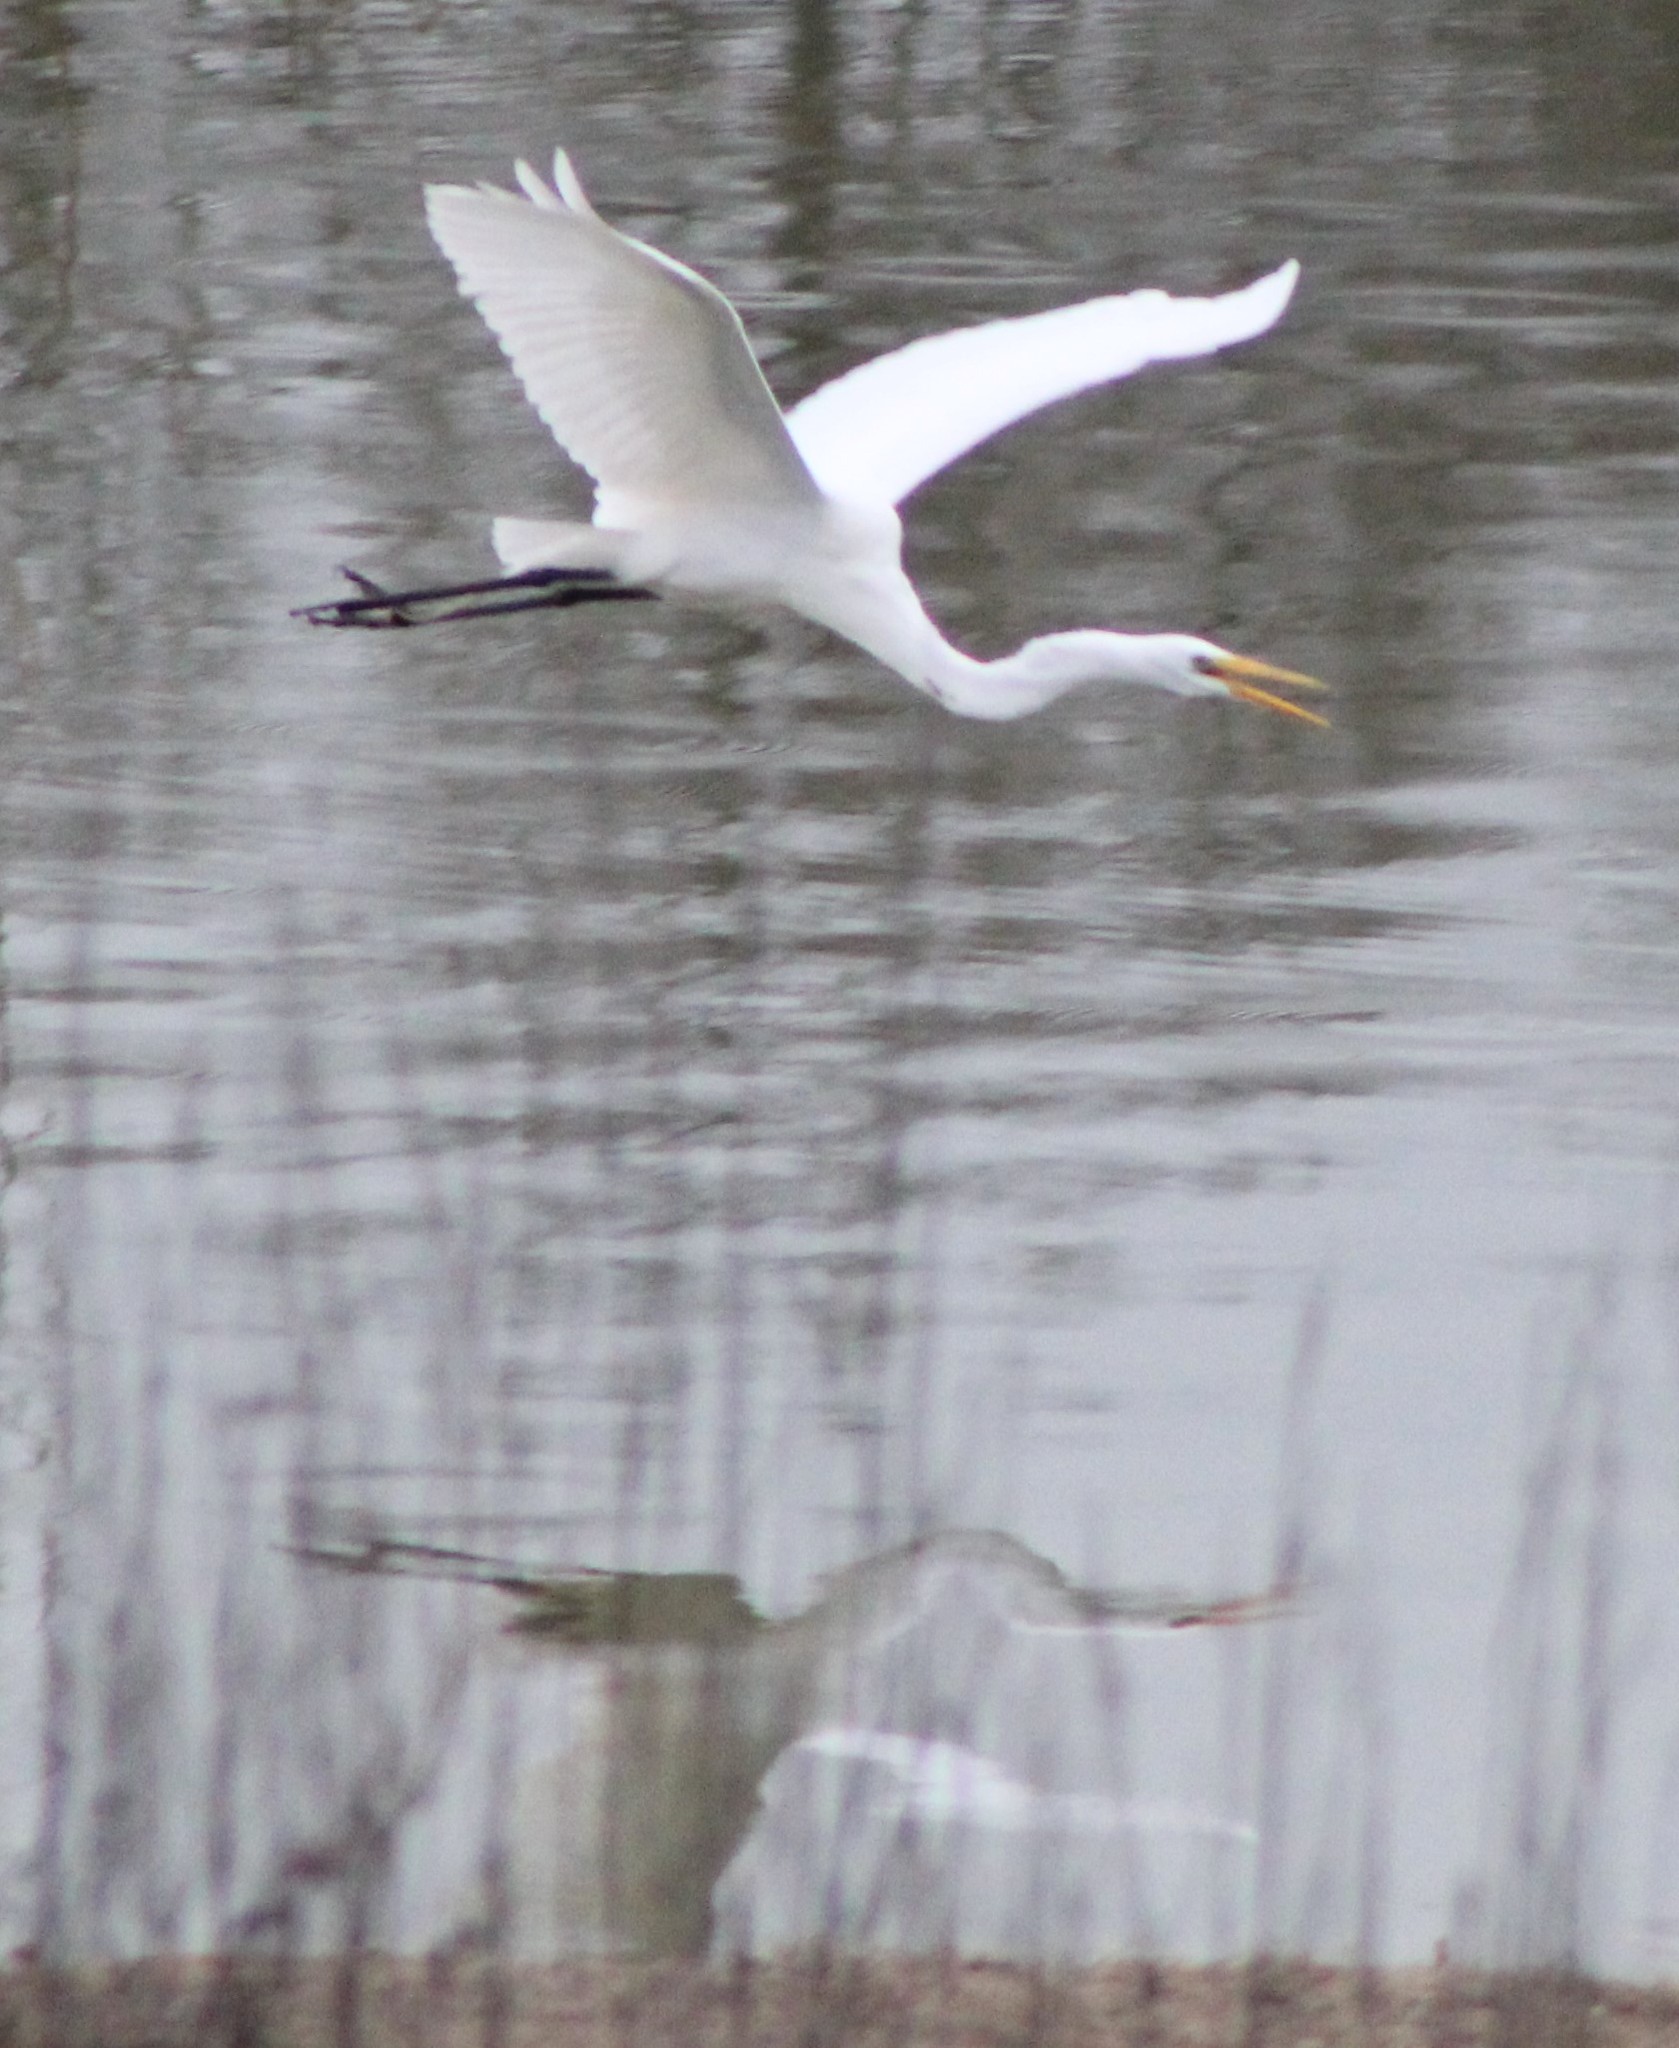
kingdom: Animalia
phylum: Chordata
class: Aves
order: Pelecaniformes
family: Ardeidae
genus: Ardea
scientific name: Ardea alba
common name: Great egret
